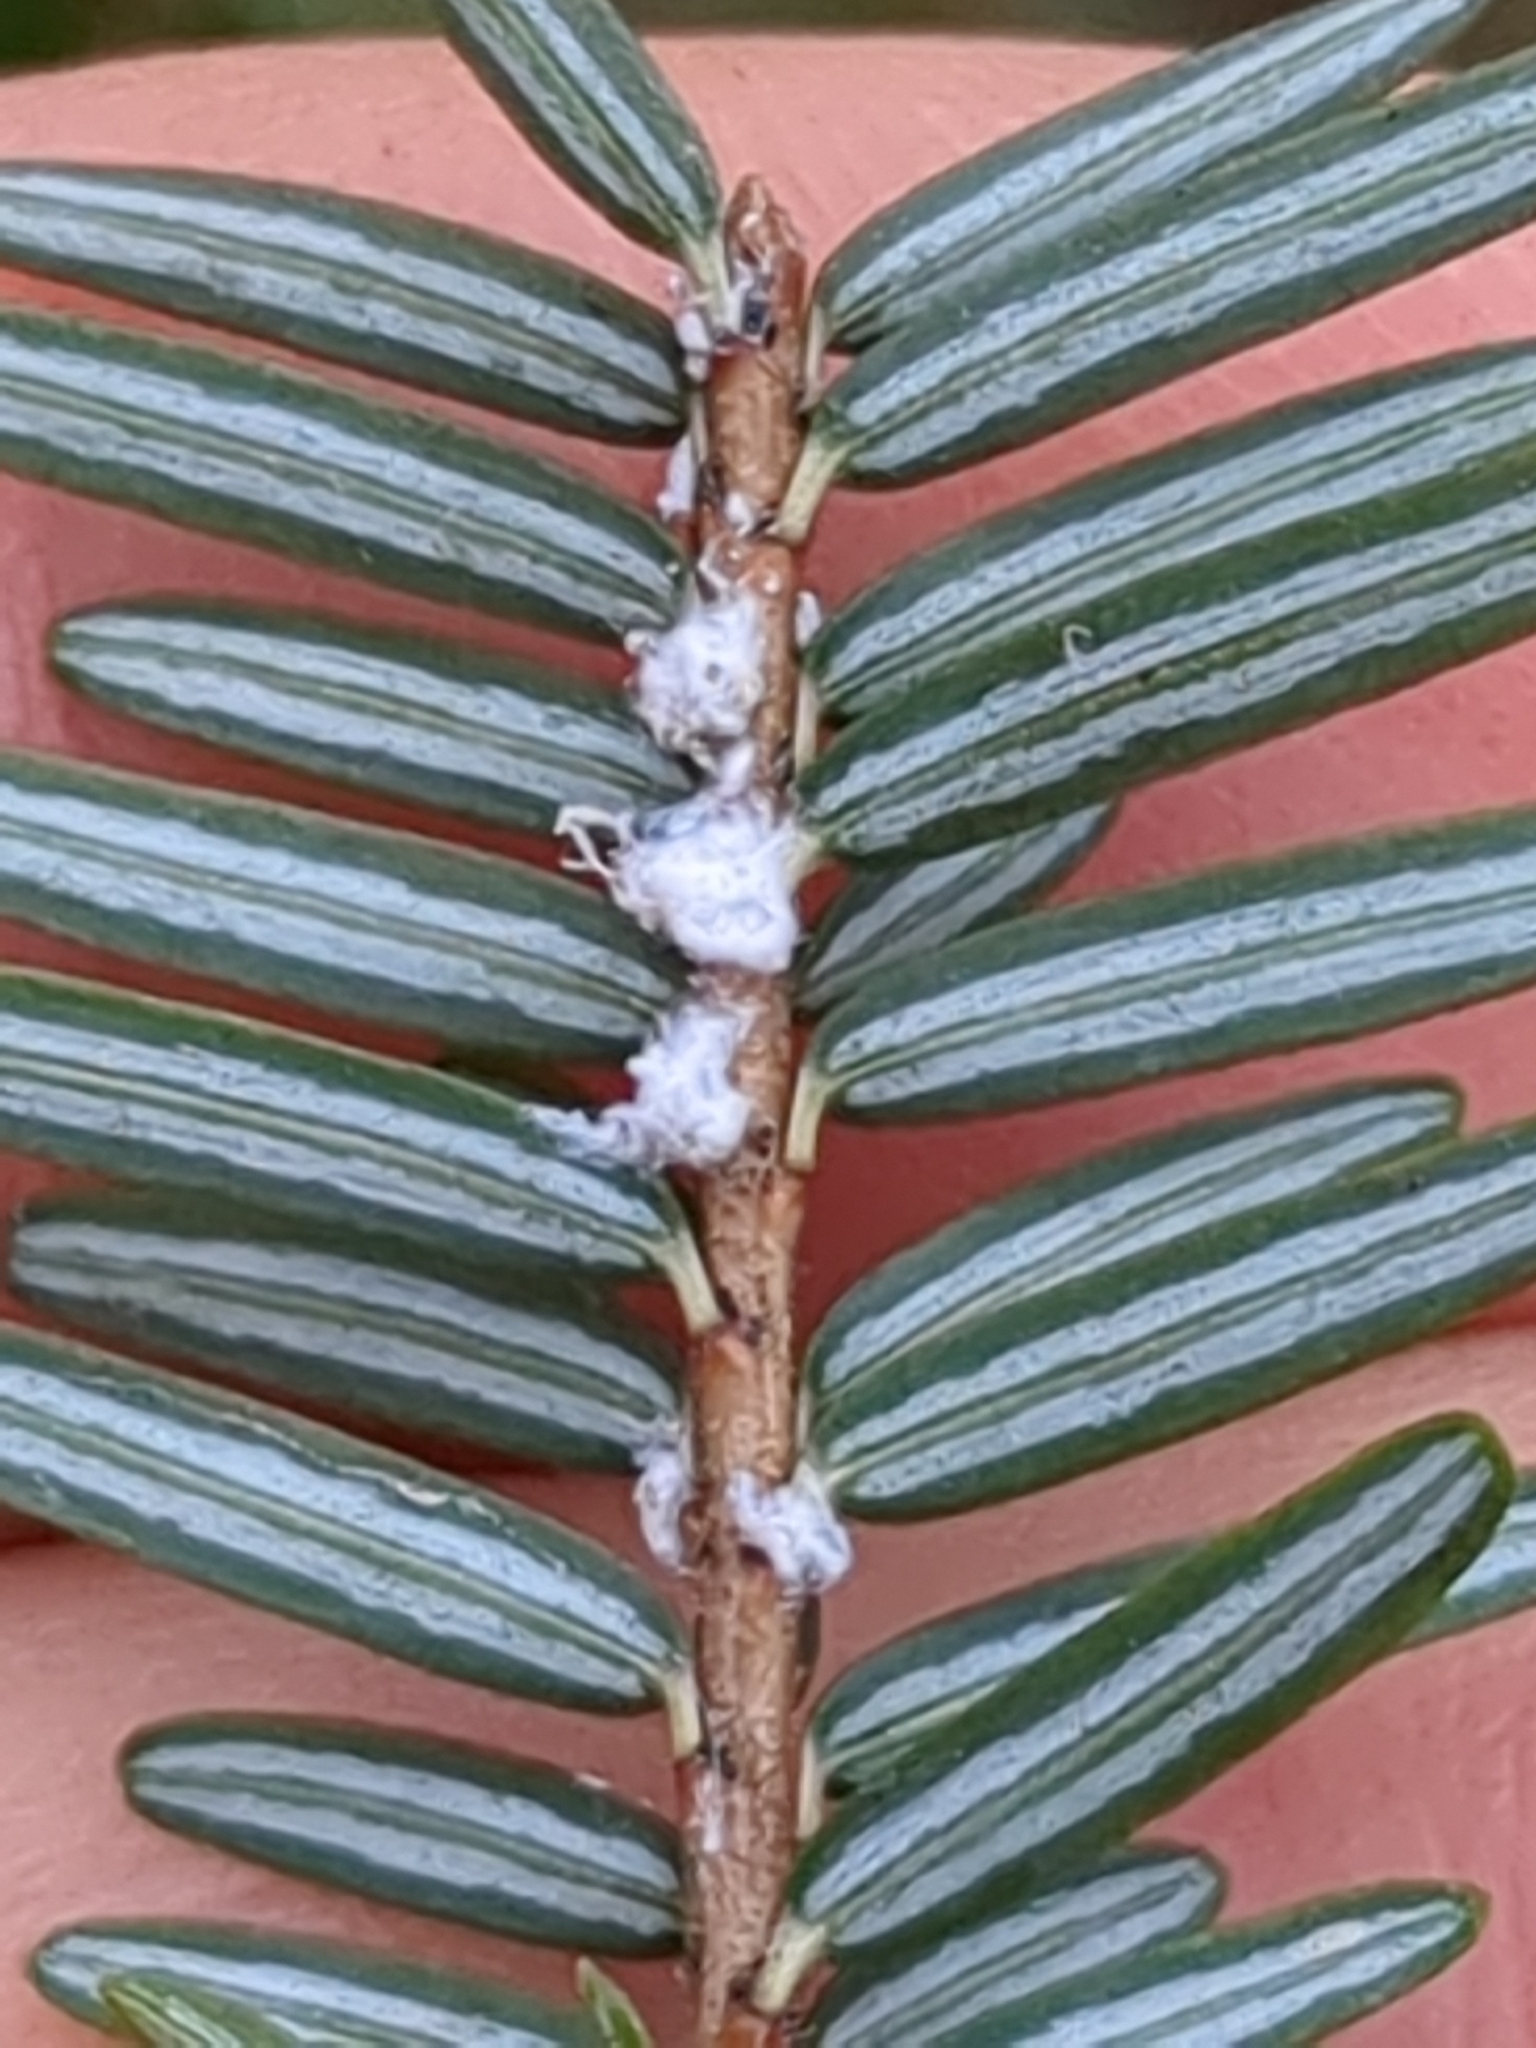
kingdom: Animalia
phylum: Arthropoda
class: Insecta
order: Hemiptera
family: Adelgidae
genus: Adelges
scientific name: Adelges tsugae
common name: Hemlock woolly adelgid
